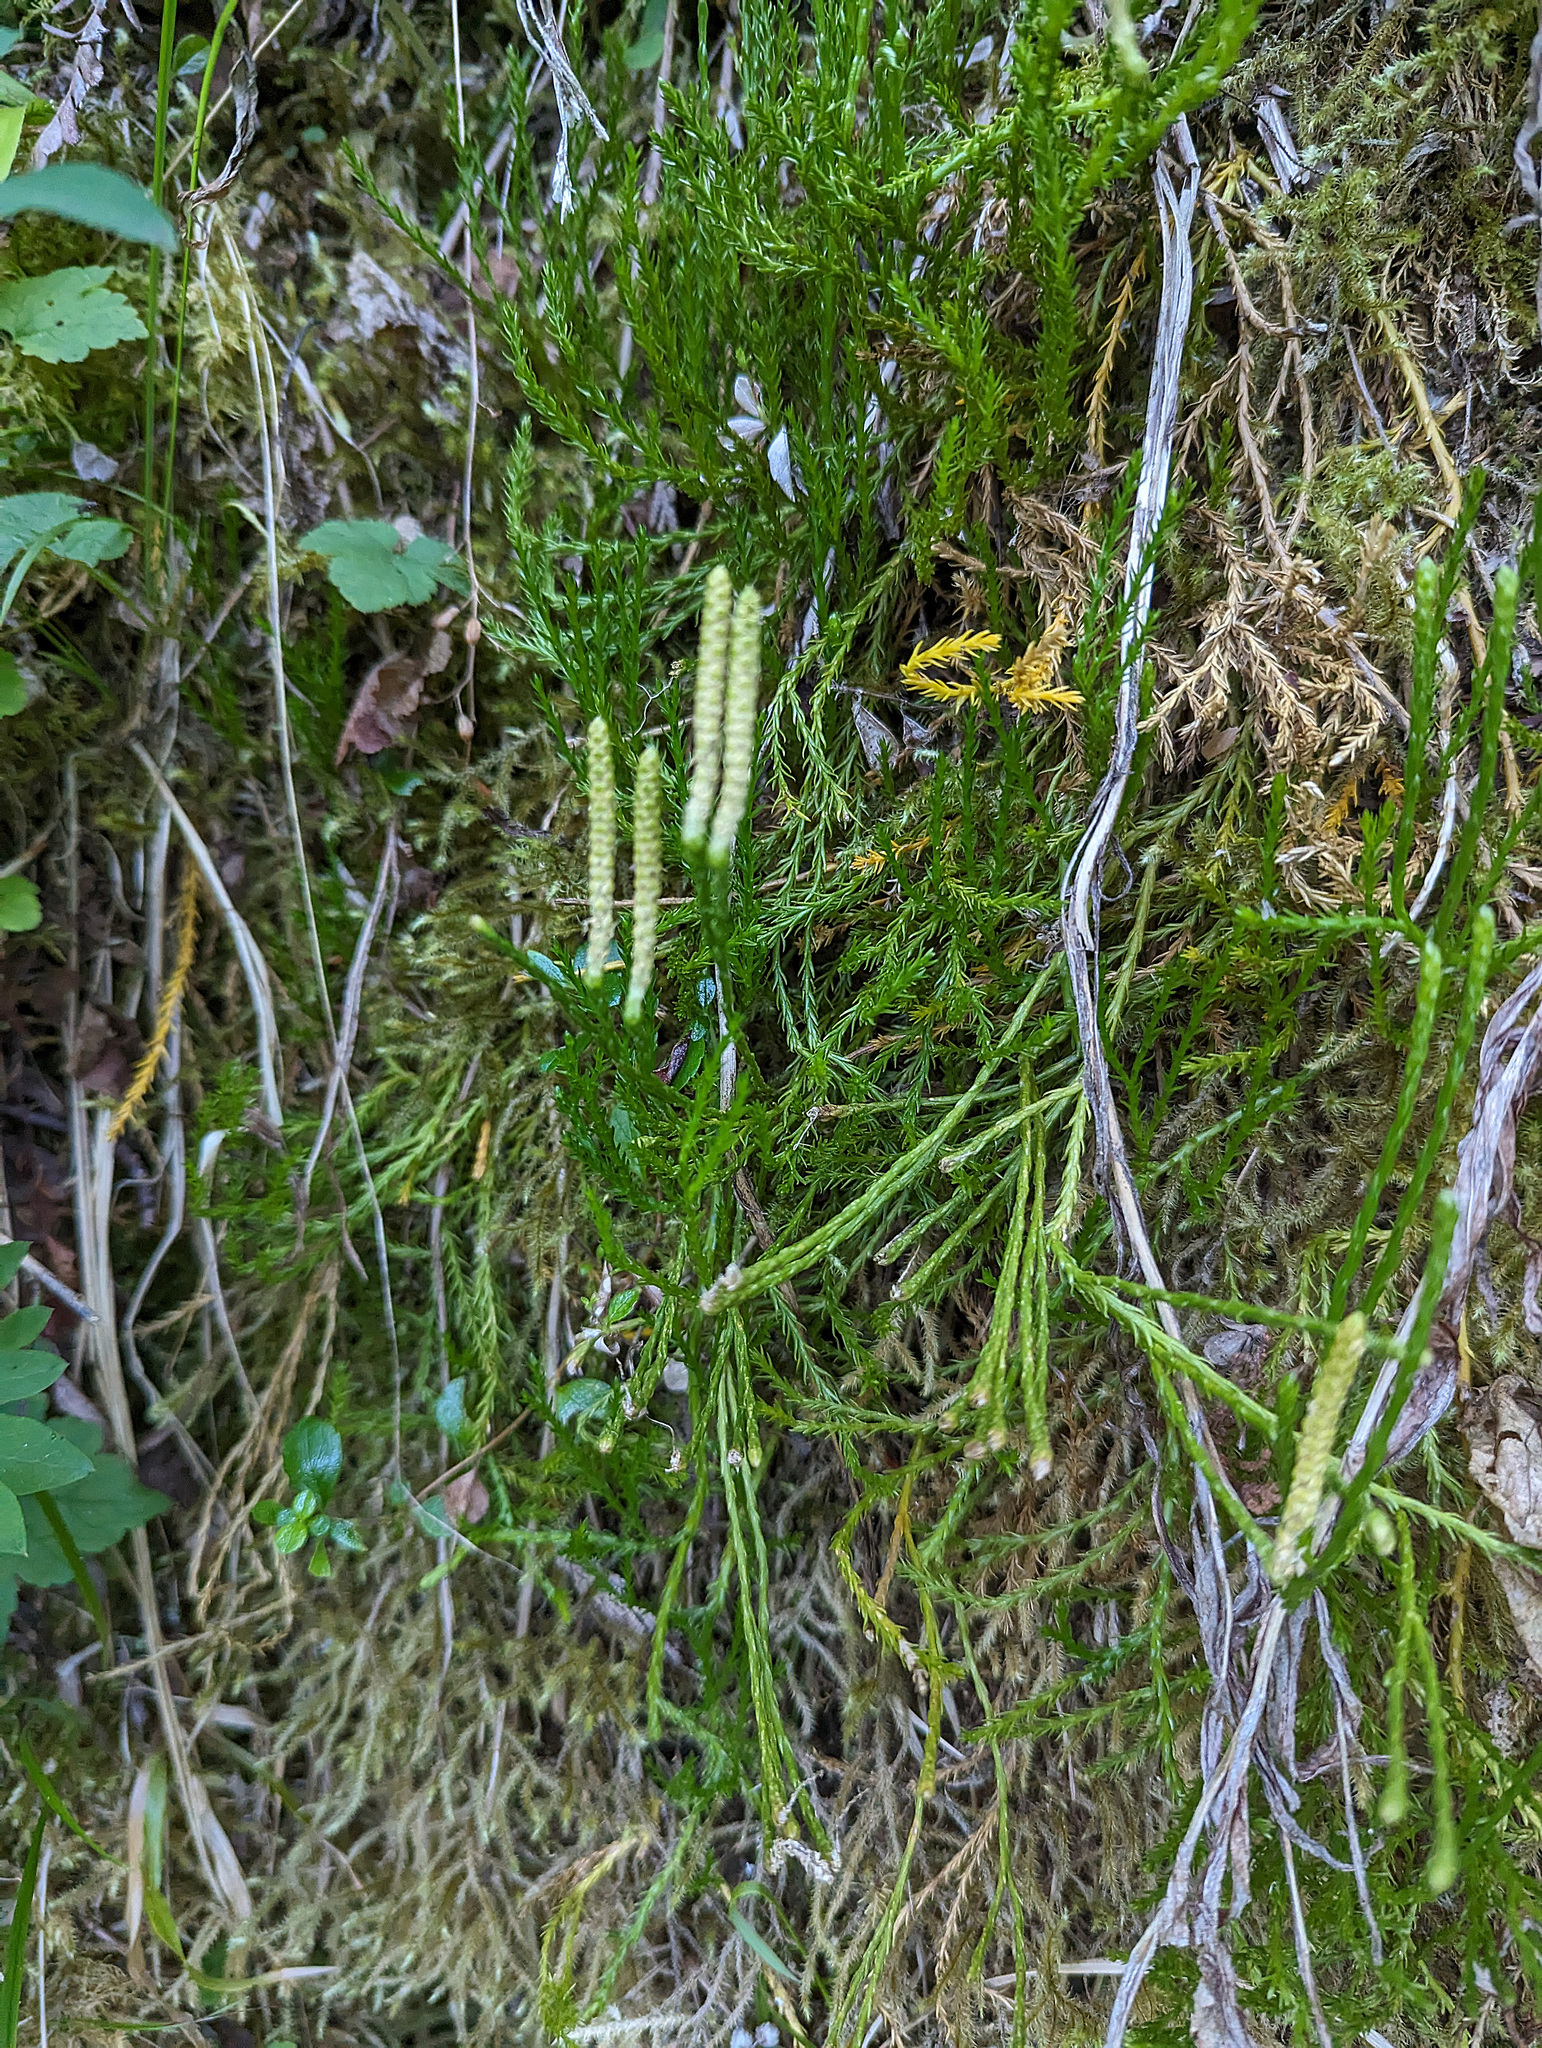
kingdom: Plantae
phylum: Tracheophyta
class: Lycopodiopsida
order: Lycopodiales
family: Lycopodiaceae
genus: Diphasiastrum
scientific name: Diphasiastrum sitchense
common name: Alaska clubmoss
